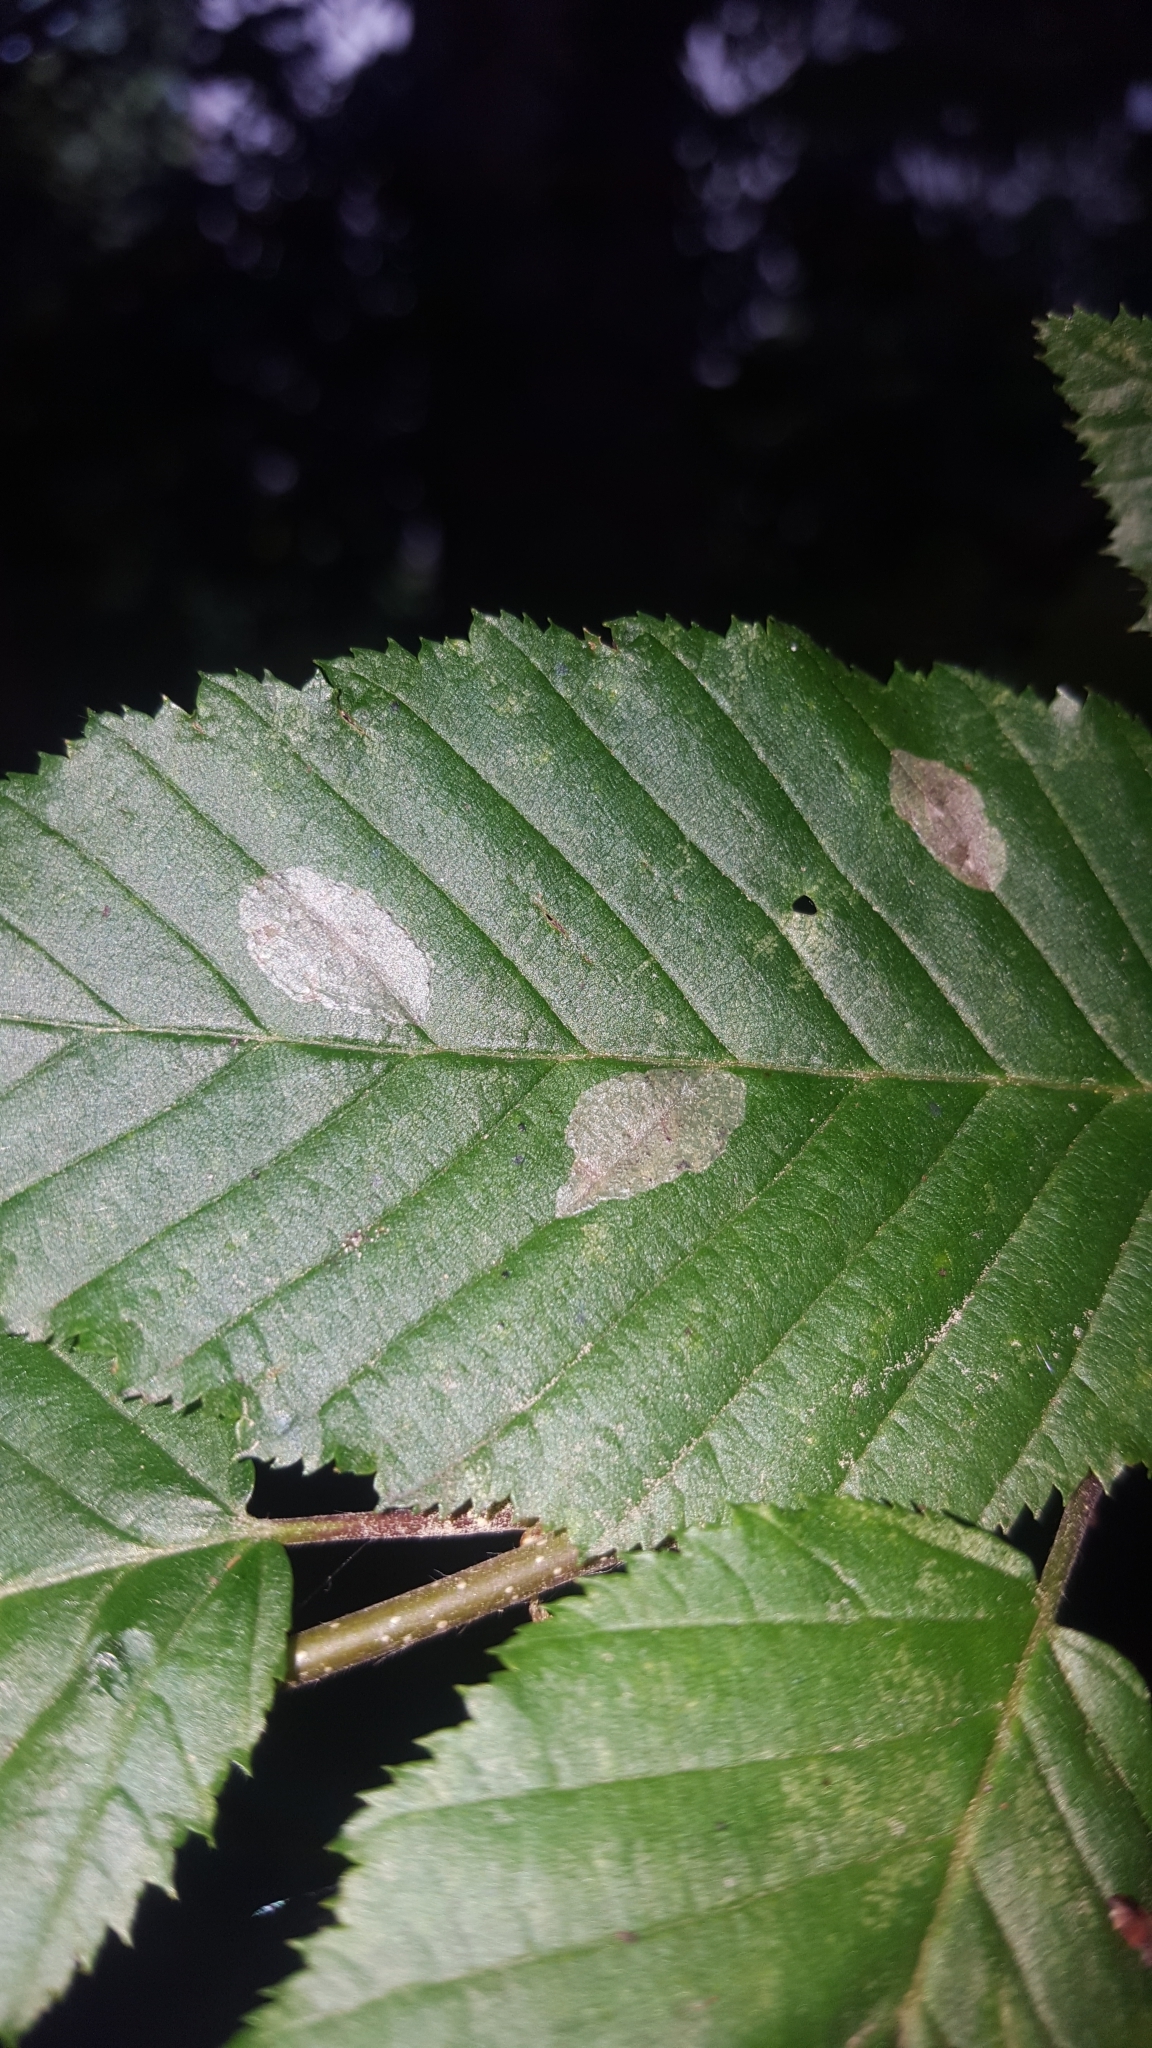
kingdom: Animalia
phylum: Arthropoda
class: Insecta
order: Lepidoptera
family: Gracillariidae
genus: Phyllonorycter
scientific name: Phyllonorycter esperella
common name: Dark hornbeam midget
